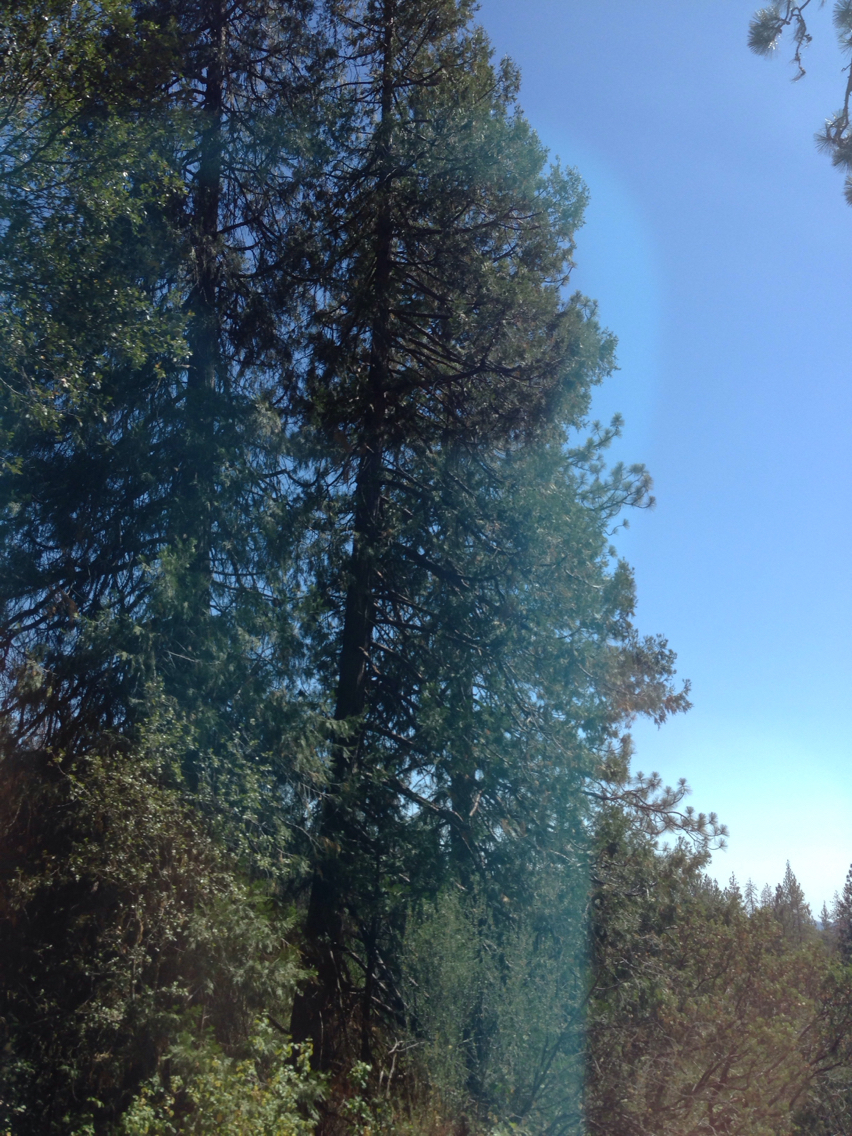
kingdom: Plantae
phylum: Tracheophyta
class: Pinopsida
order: Pinales
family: Cupressaceae
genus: Calocedrus
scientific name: Calocedrus decurrens
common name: Californian incense-cedar
